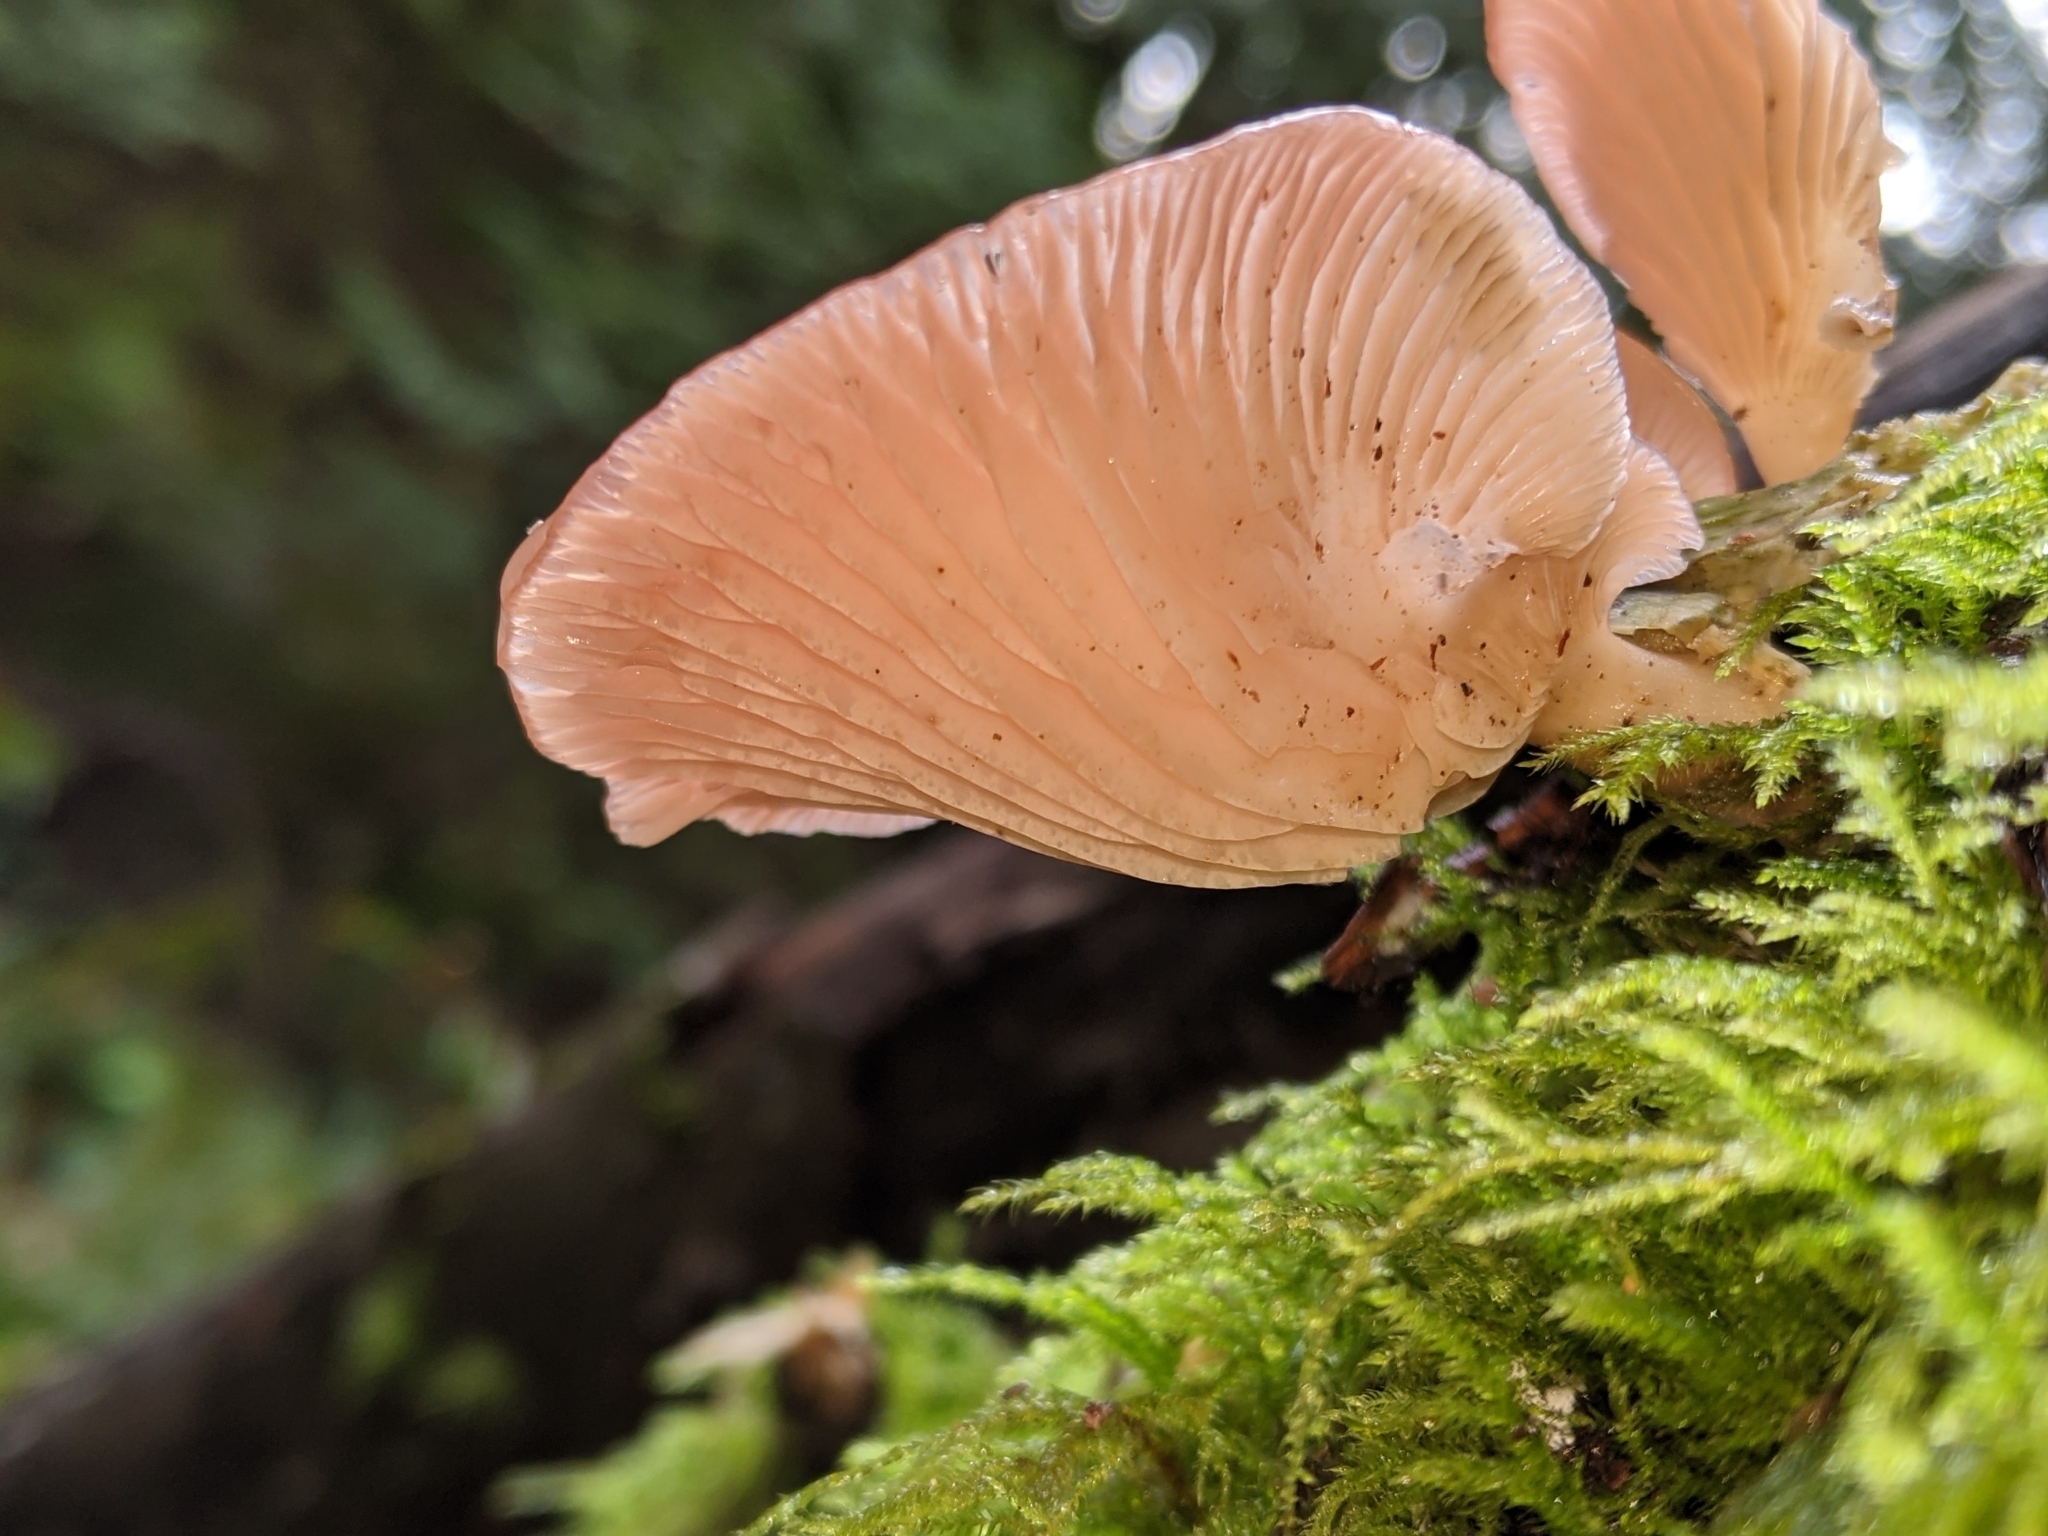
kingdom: Fungi
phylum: Basidiomycota
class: Agaricomycetes
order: Agaricales
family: Mycenaceae
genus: Panellus
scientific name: Panellus longinquus
